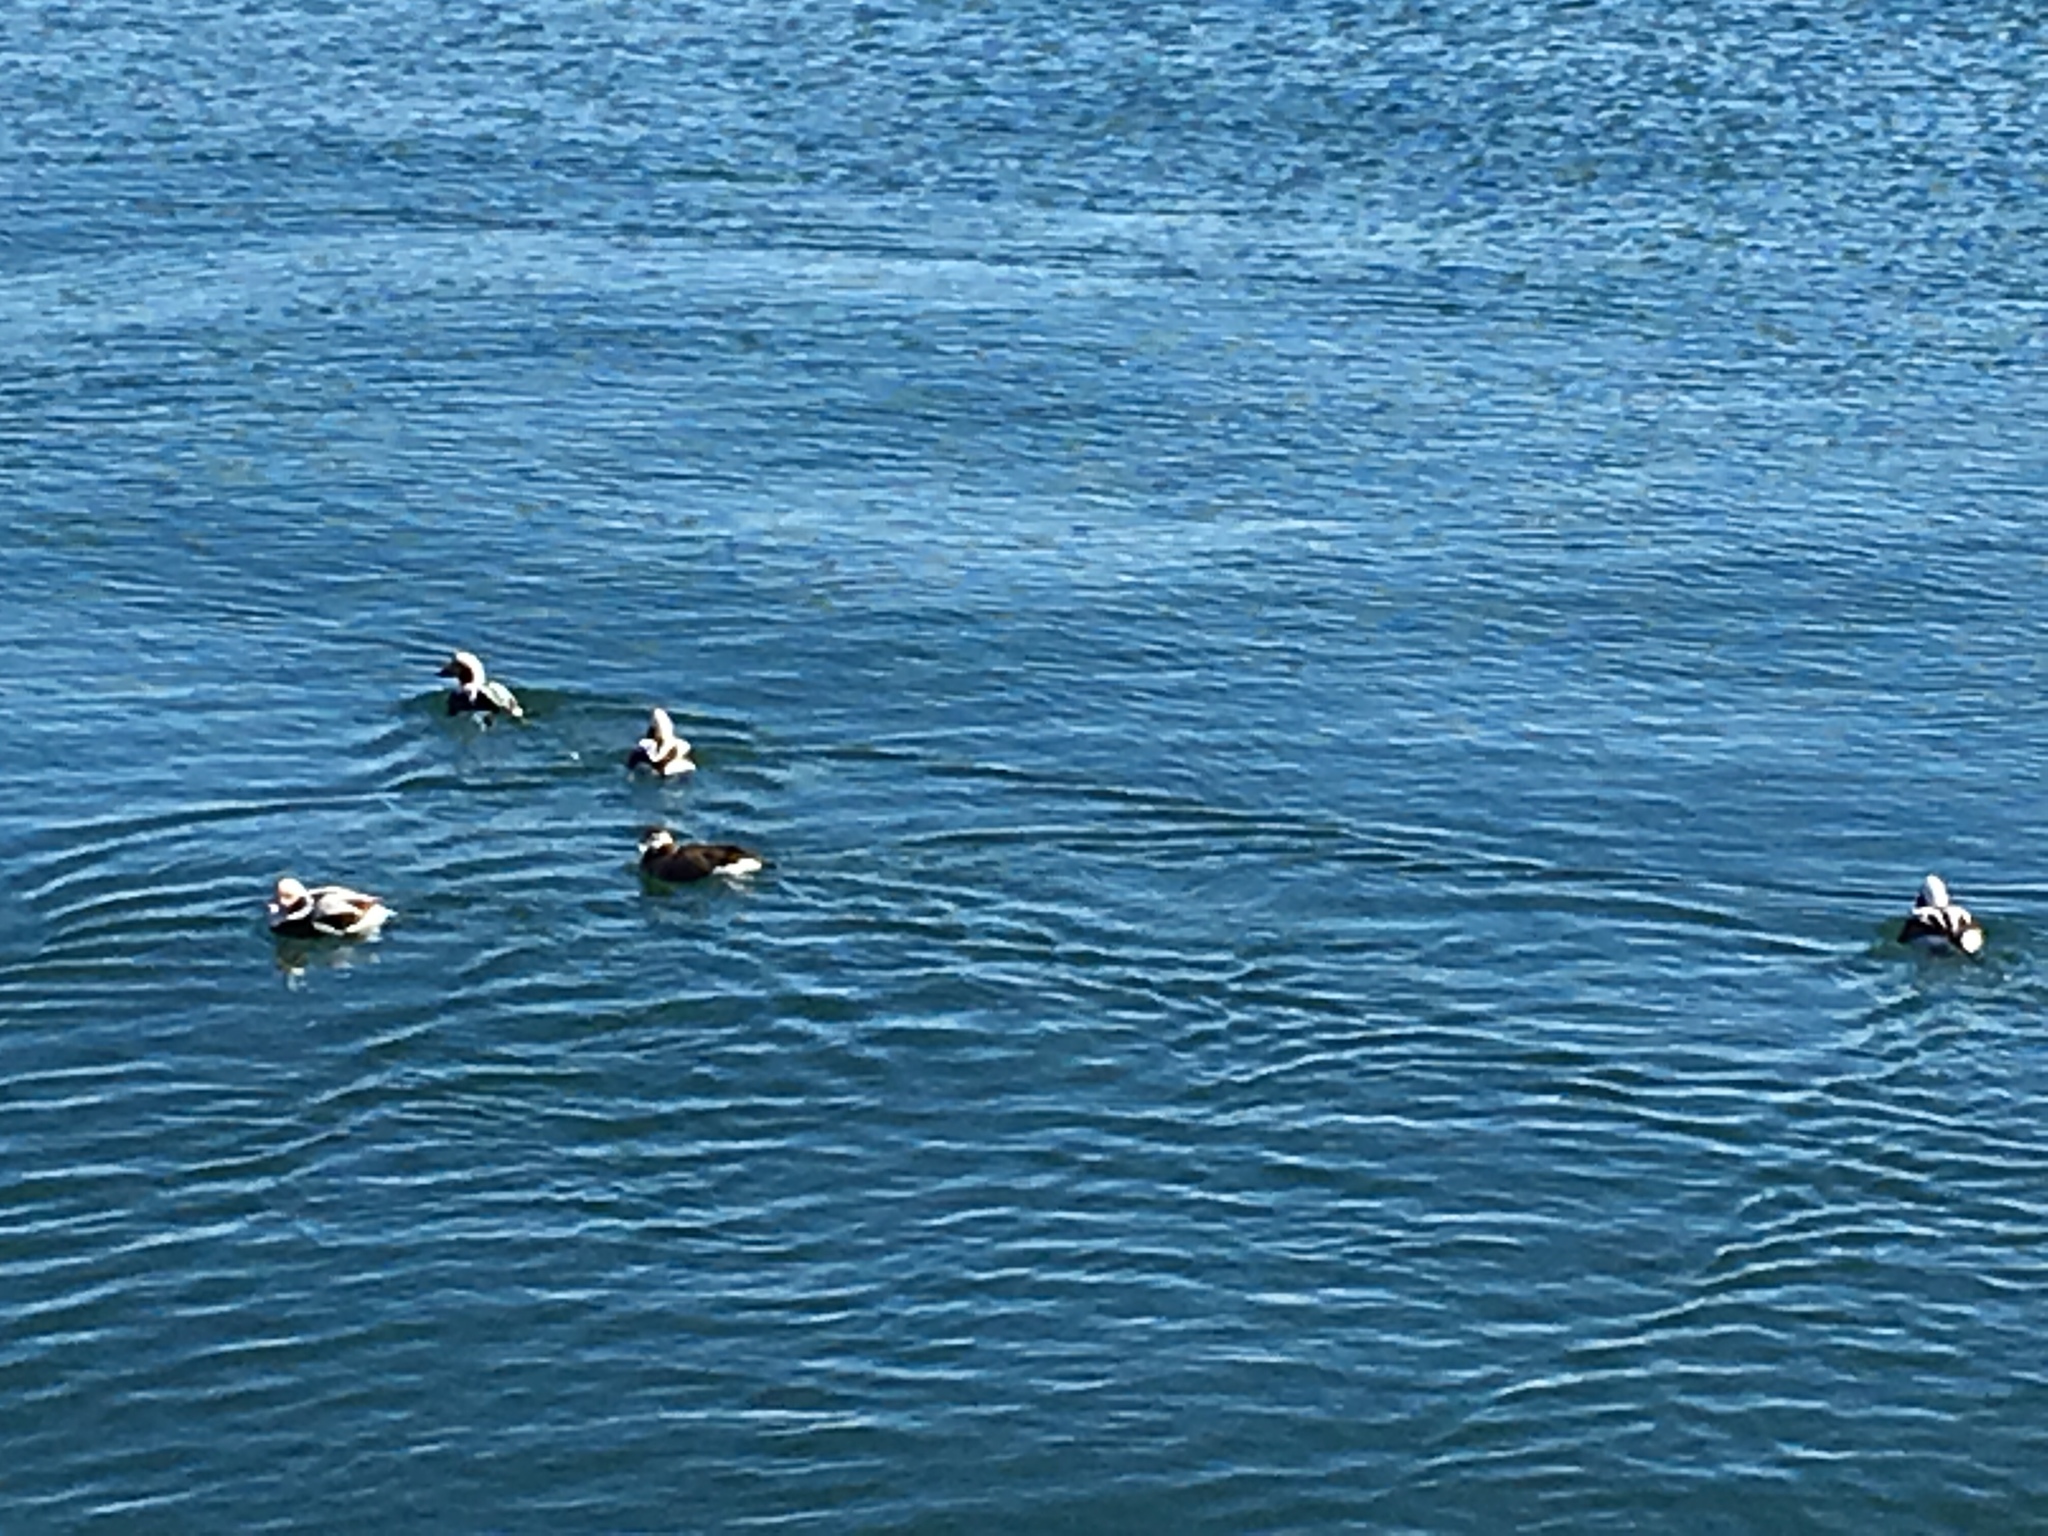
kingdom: Animalia
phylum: Chordata
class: Aves
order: Anseriformes
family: Anatidae
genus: Clangula
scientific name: Clangula hyemalis
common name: Long-tailed duck
